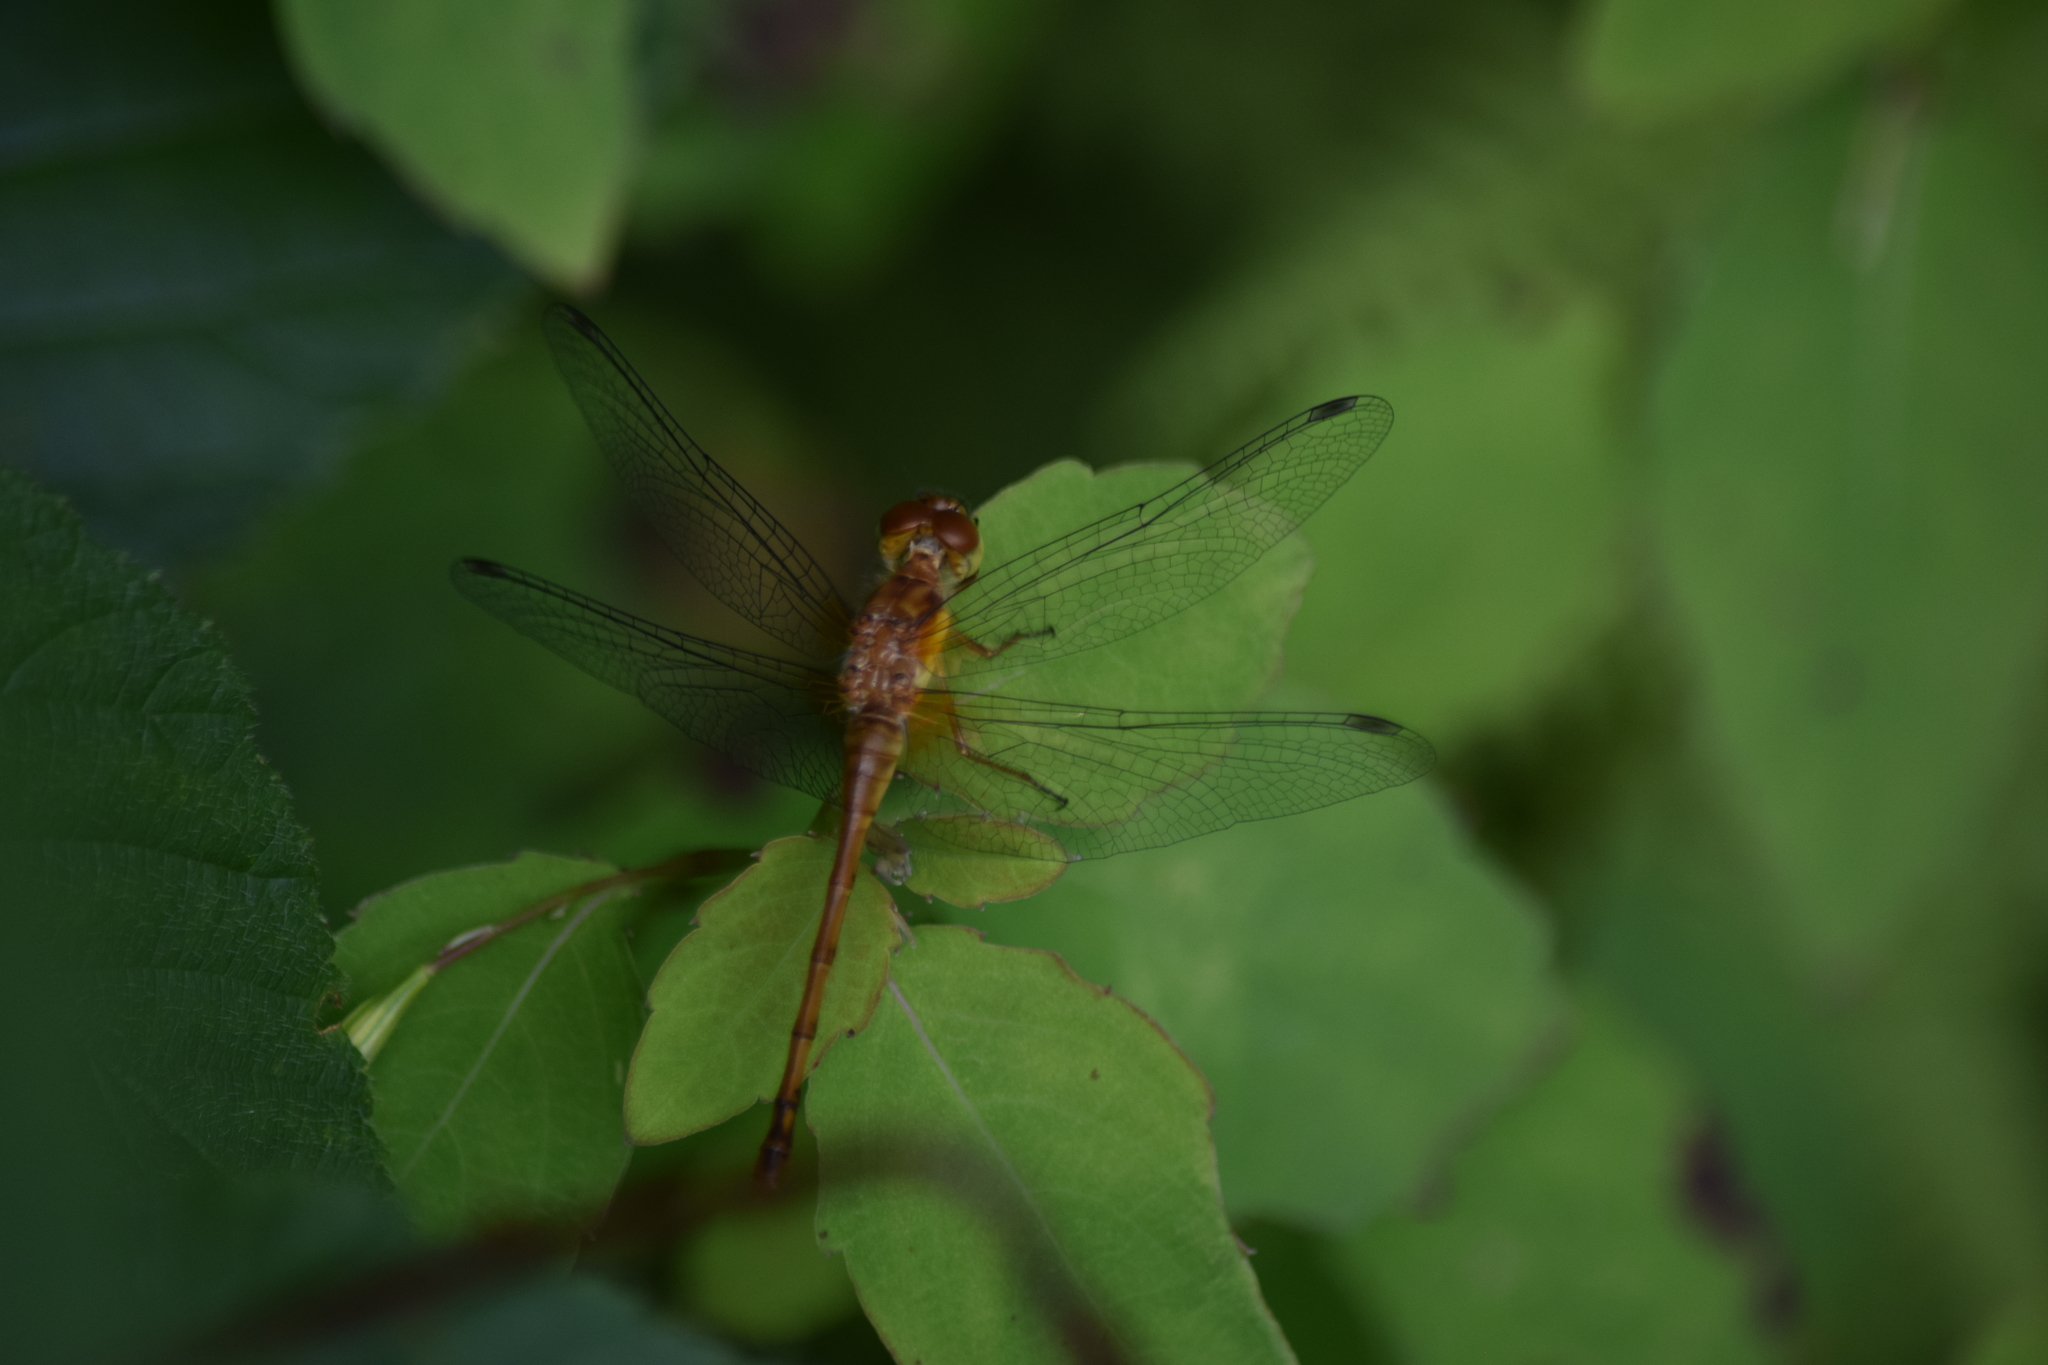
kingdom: Animalia
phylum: Arthropoda
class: Insecta
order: Odonata
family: Libellulidae
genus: Sympetrum
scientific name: Sympetrum vicinum
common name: Autumn meadowhawk
